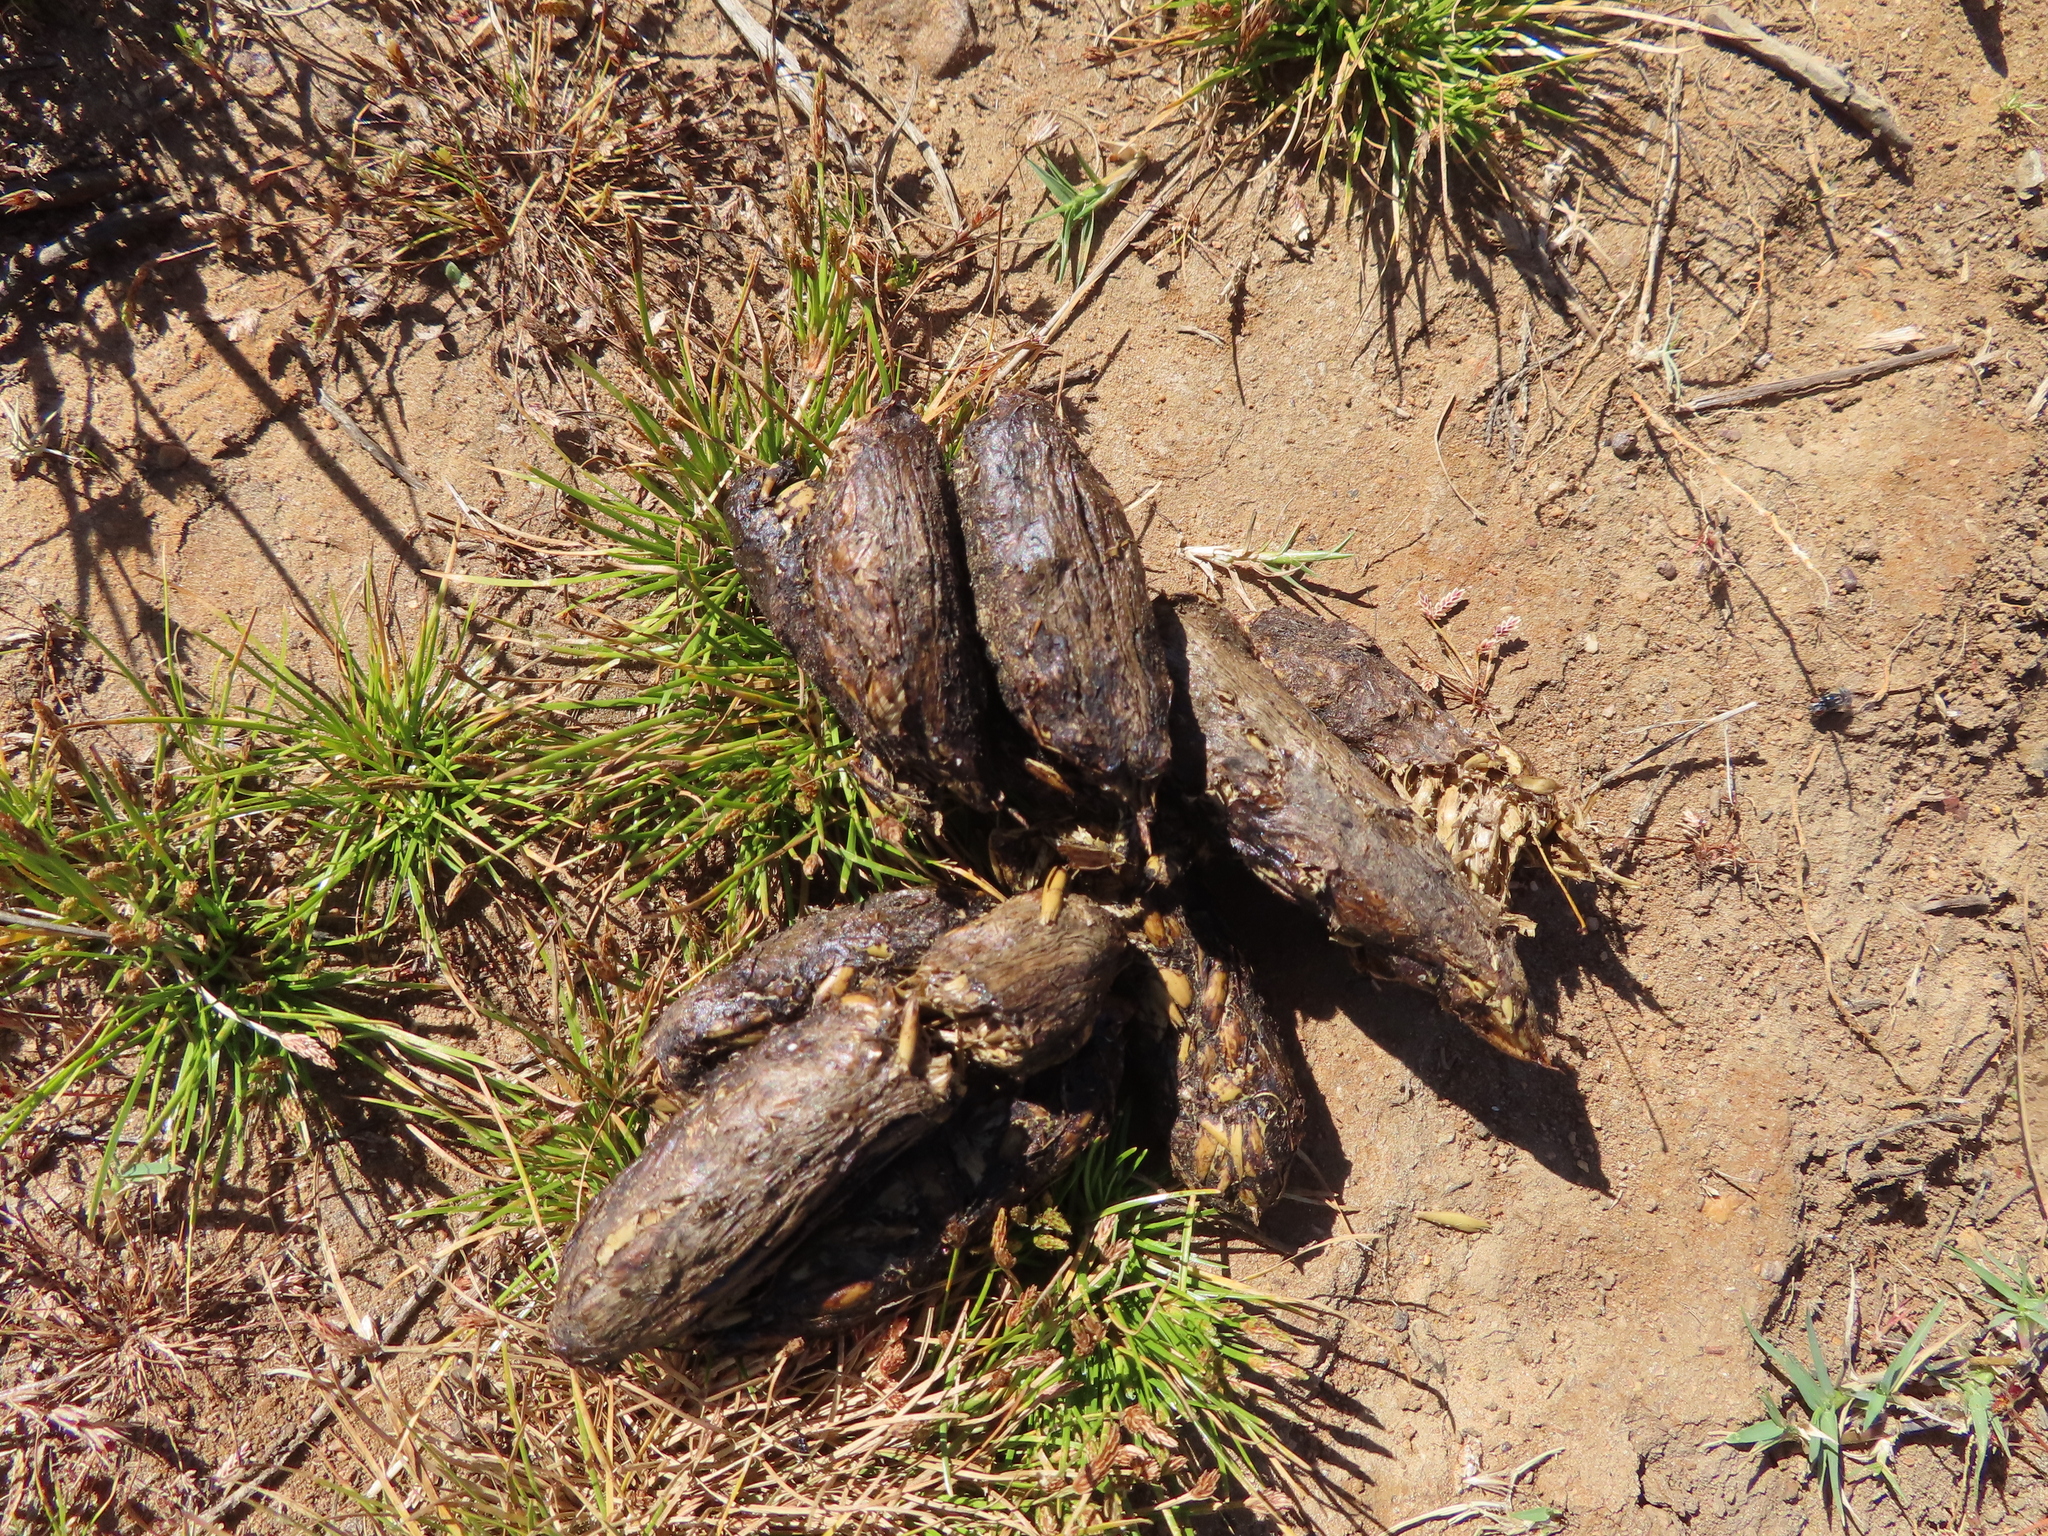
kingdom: Animalia
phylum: Chordata
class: Mammalia
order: Rodentia
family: Hystricidae
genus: Hystrix
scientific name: Hystrix africaeaustralis
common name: Cape porcupine
